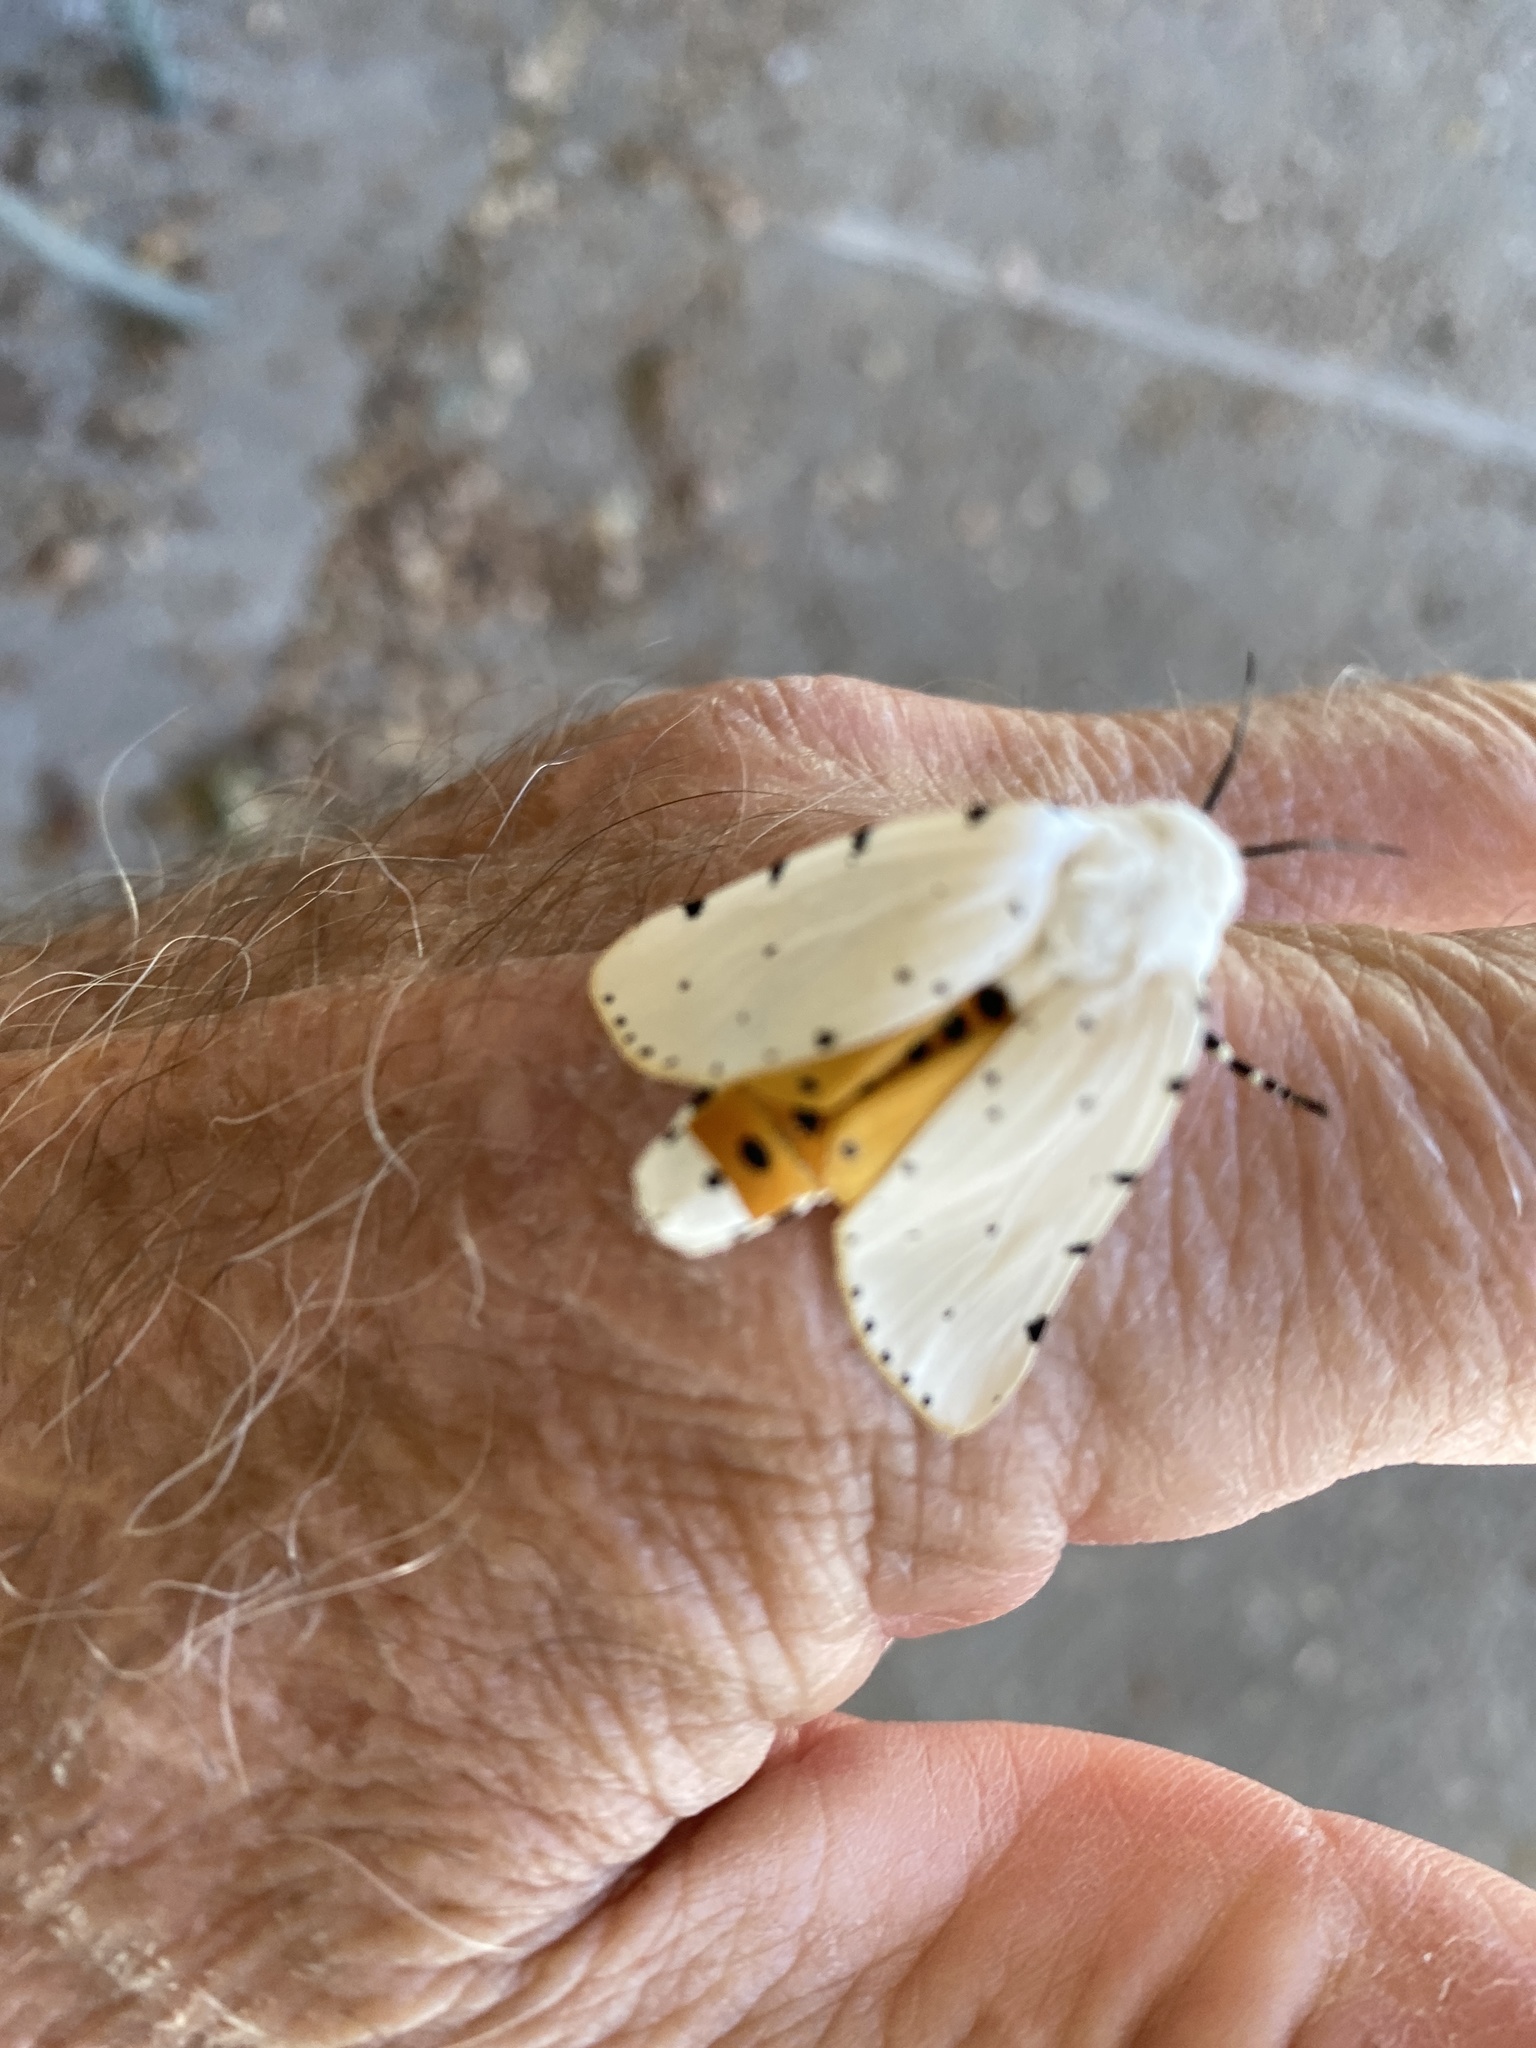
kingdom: Animalia
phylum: Arthropoda
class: Insecta
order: Lepidoptera
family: Erebidae
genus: Estigmene
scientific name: Estigmene acrea
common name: Salt marsh moth
